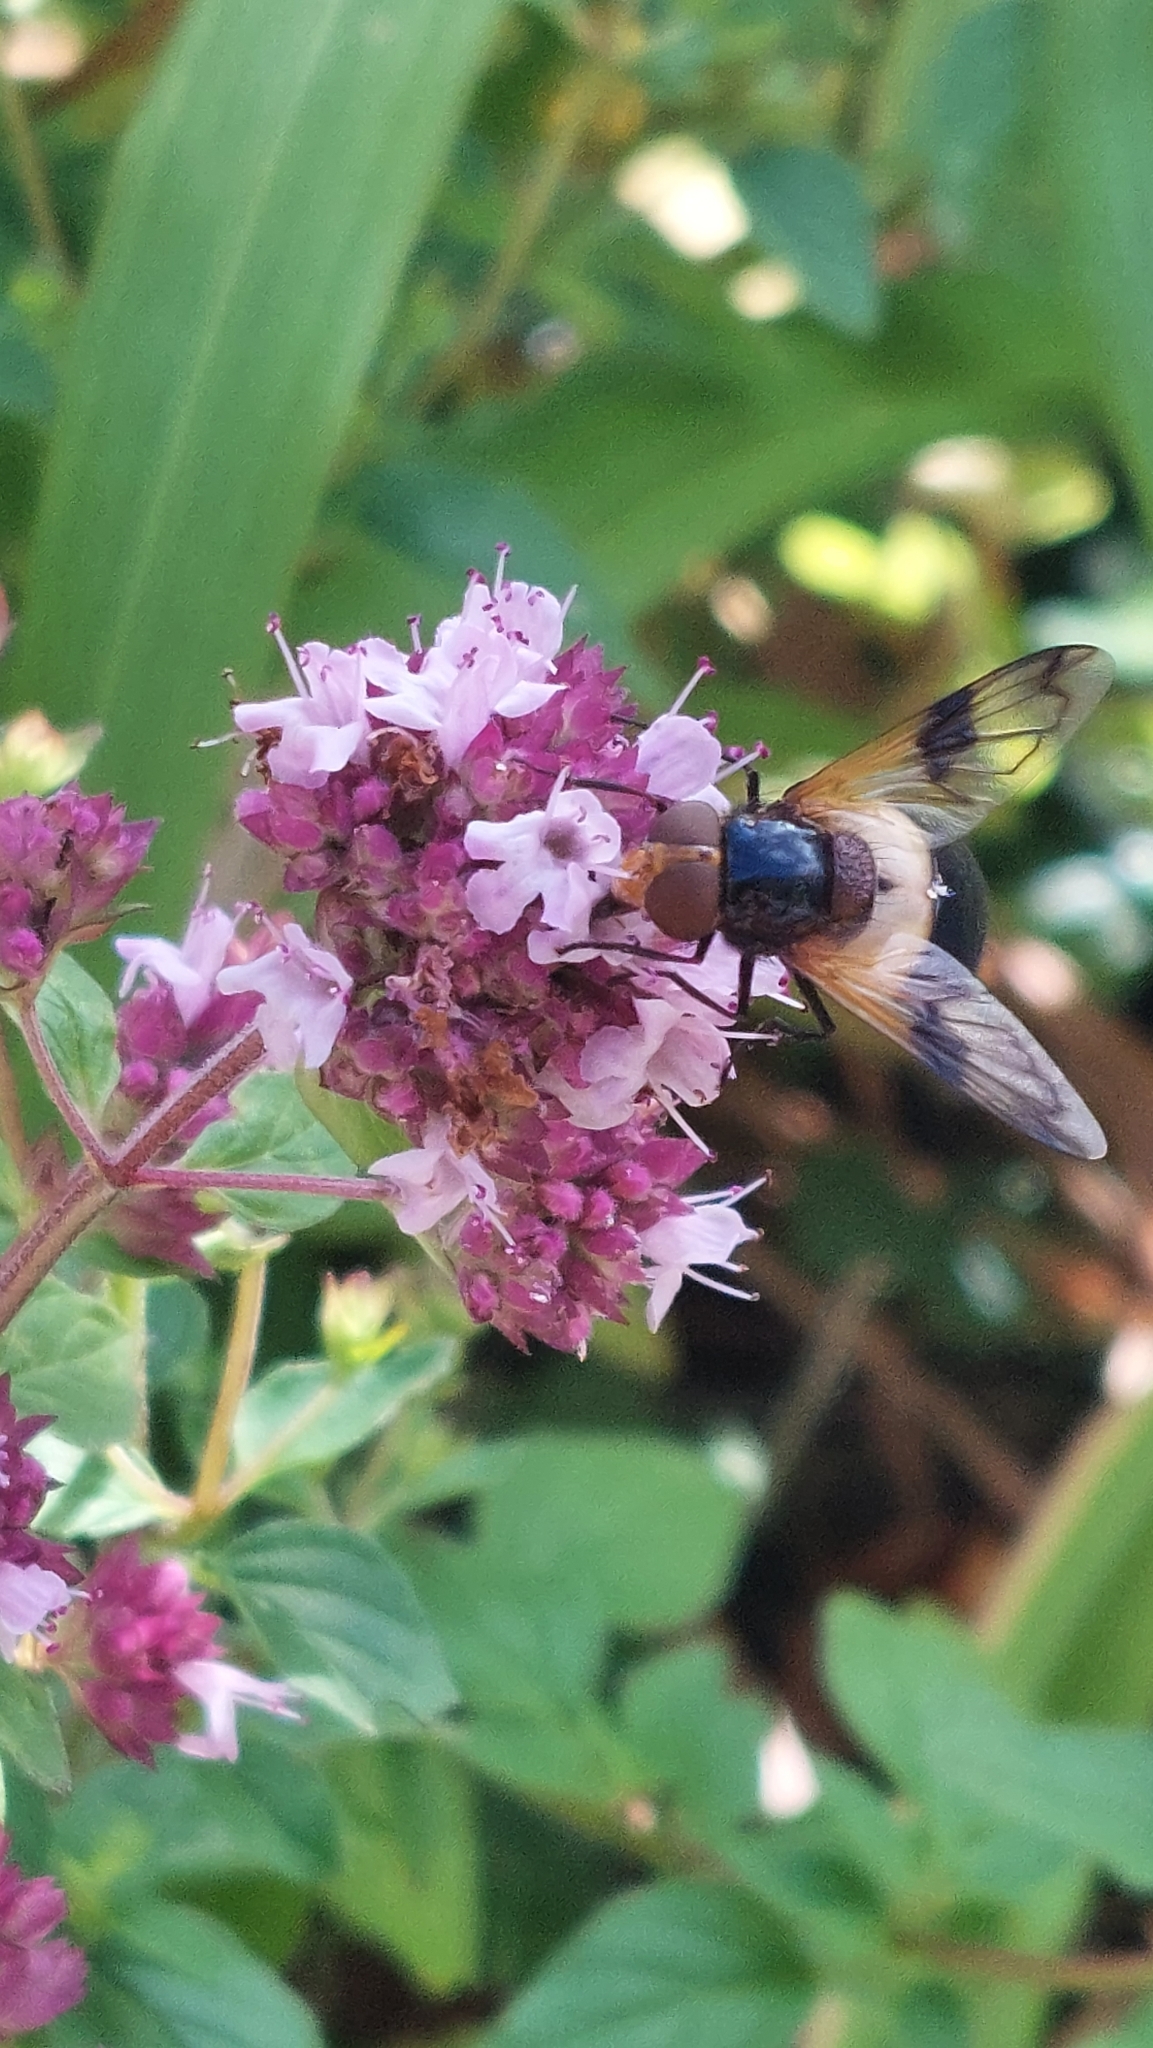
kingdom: Animalia
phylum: Arthropoda
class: Insecta
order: Diptera
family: Syrphidae
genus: Volucella
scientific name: Volucella pellucens
